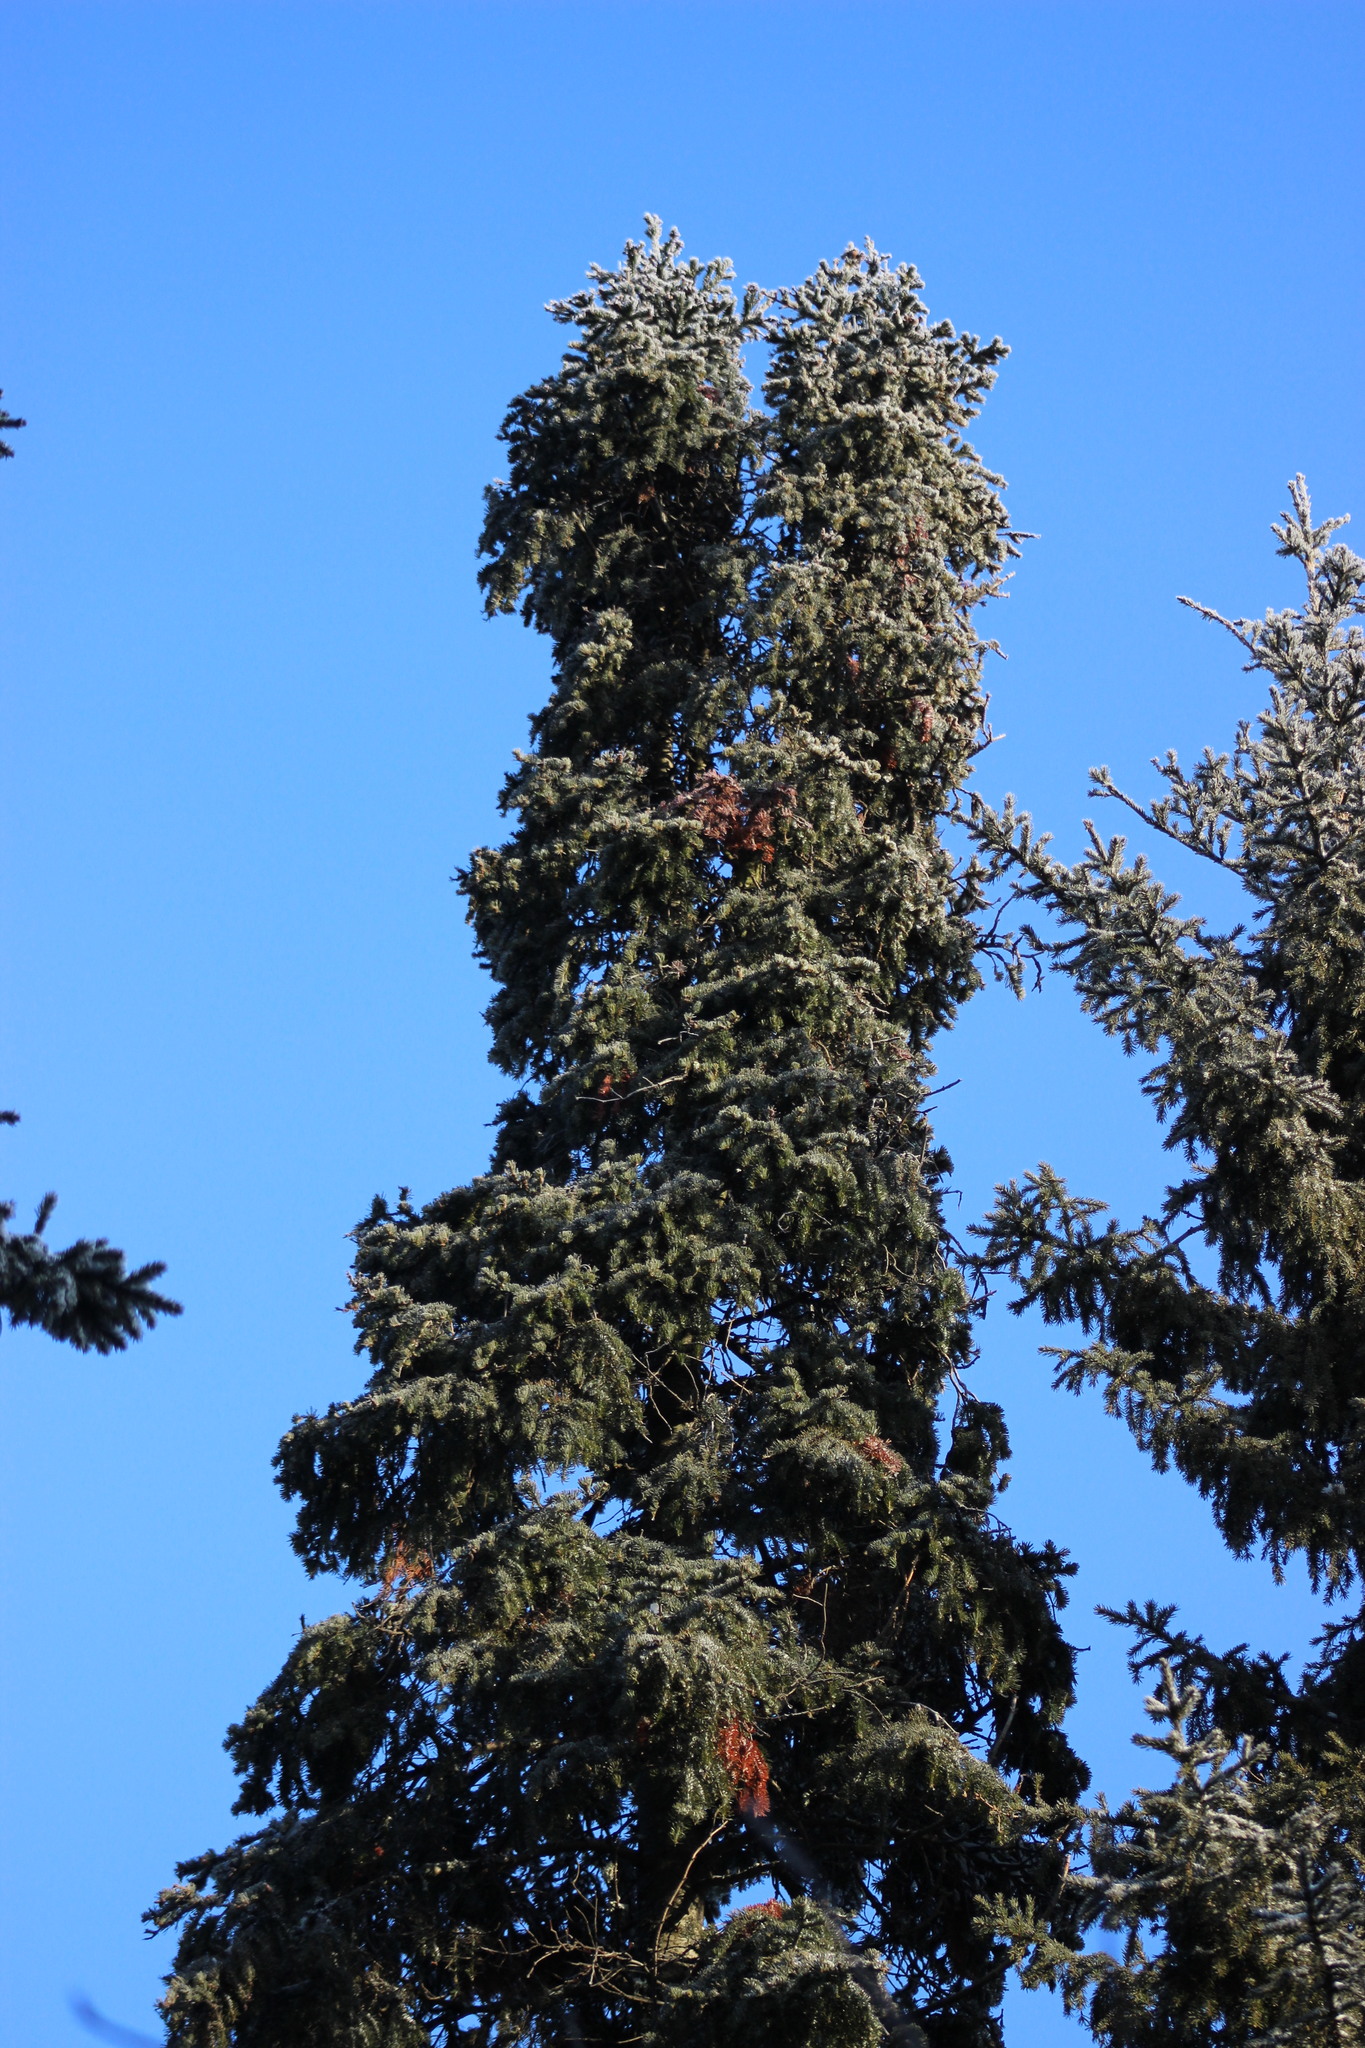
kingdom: Plantae
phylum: Tracheophyta
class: Pinopsida
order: Pinales
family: Pinaceae
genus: Picea
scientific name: Picea obovata
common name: Siberian spruce
